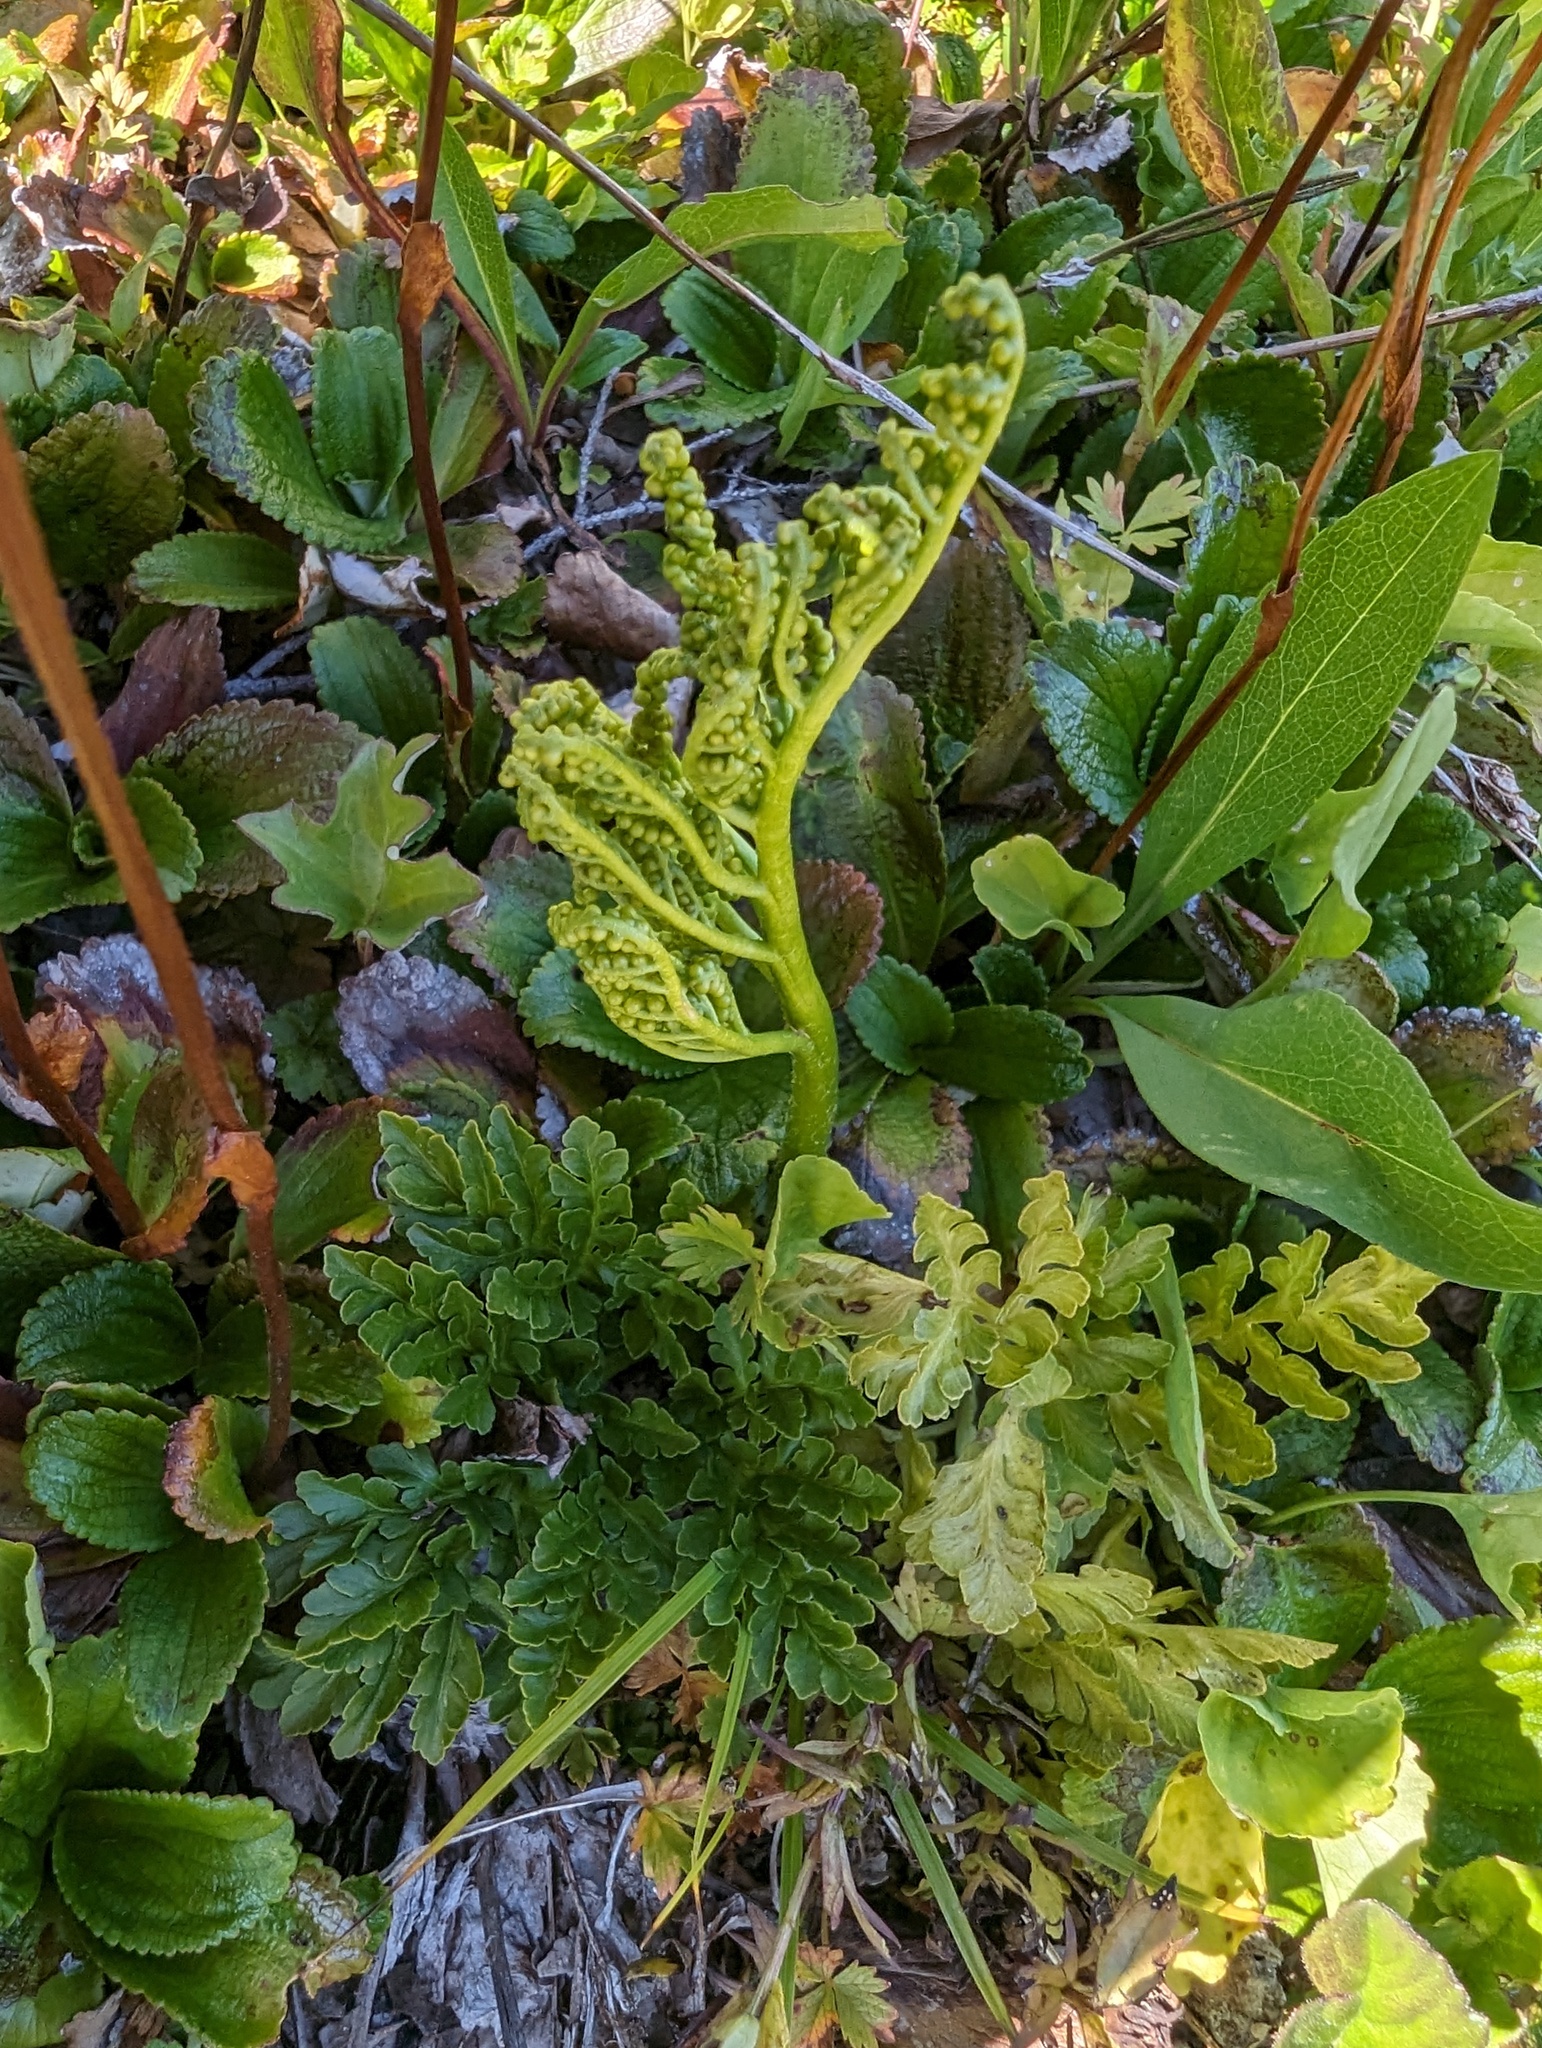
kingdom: Plantae
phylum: Tracheophyta
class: Polypodiopsida
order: Ophioglossales
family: Ophioglossaceae
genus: Sceptridium
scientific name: Sceptridium multifidum
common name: Leathery grape fern
